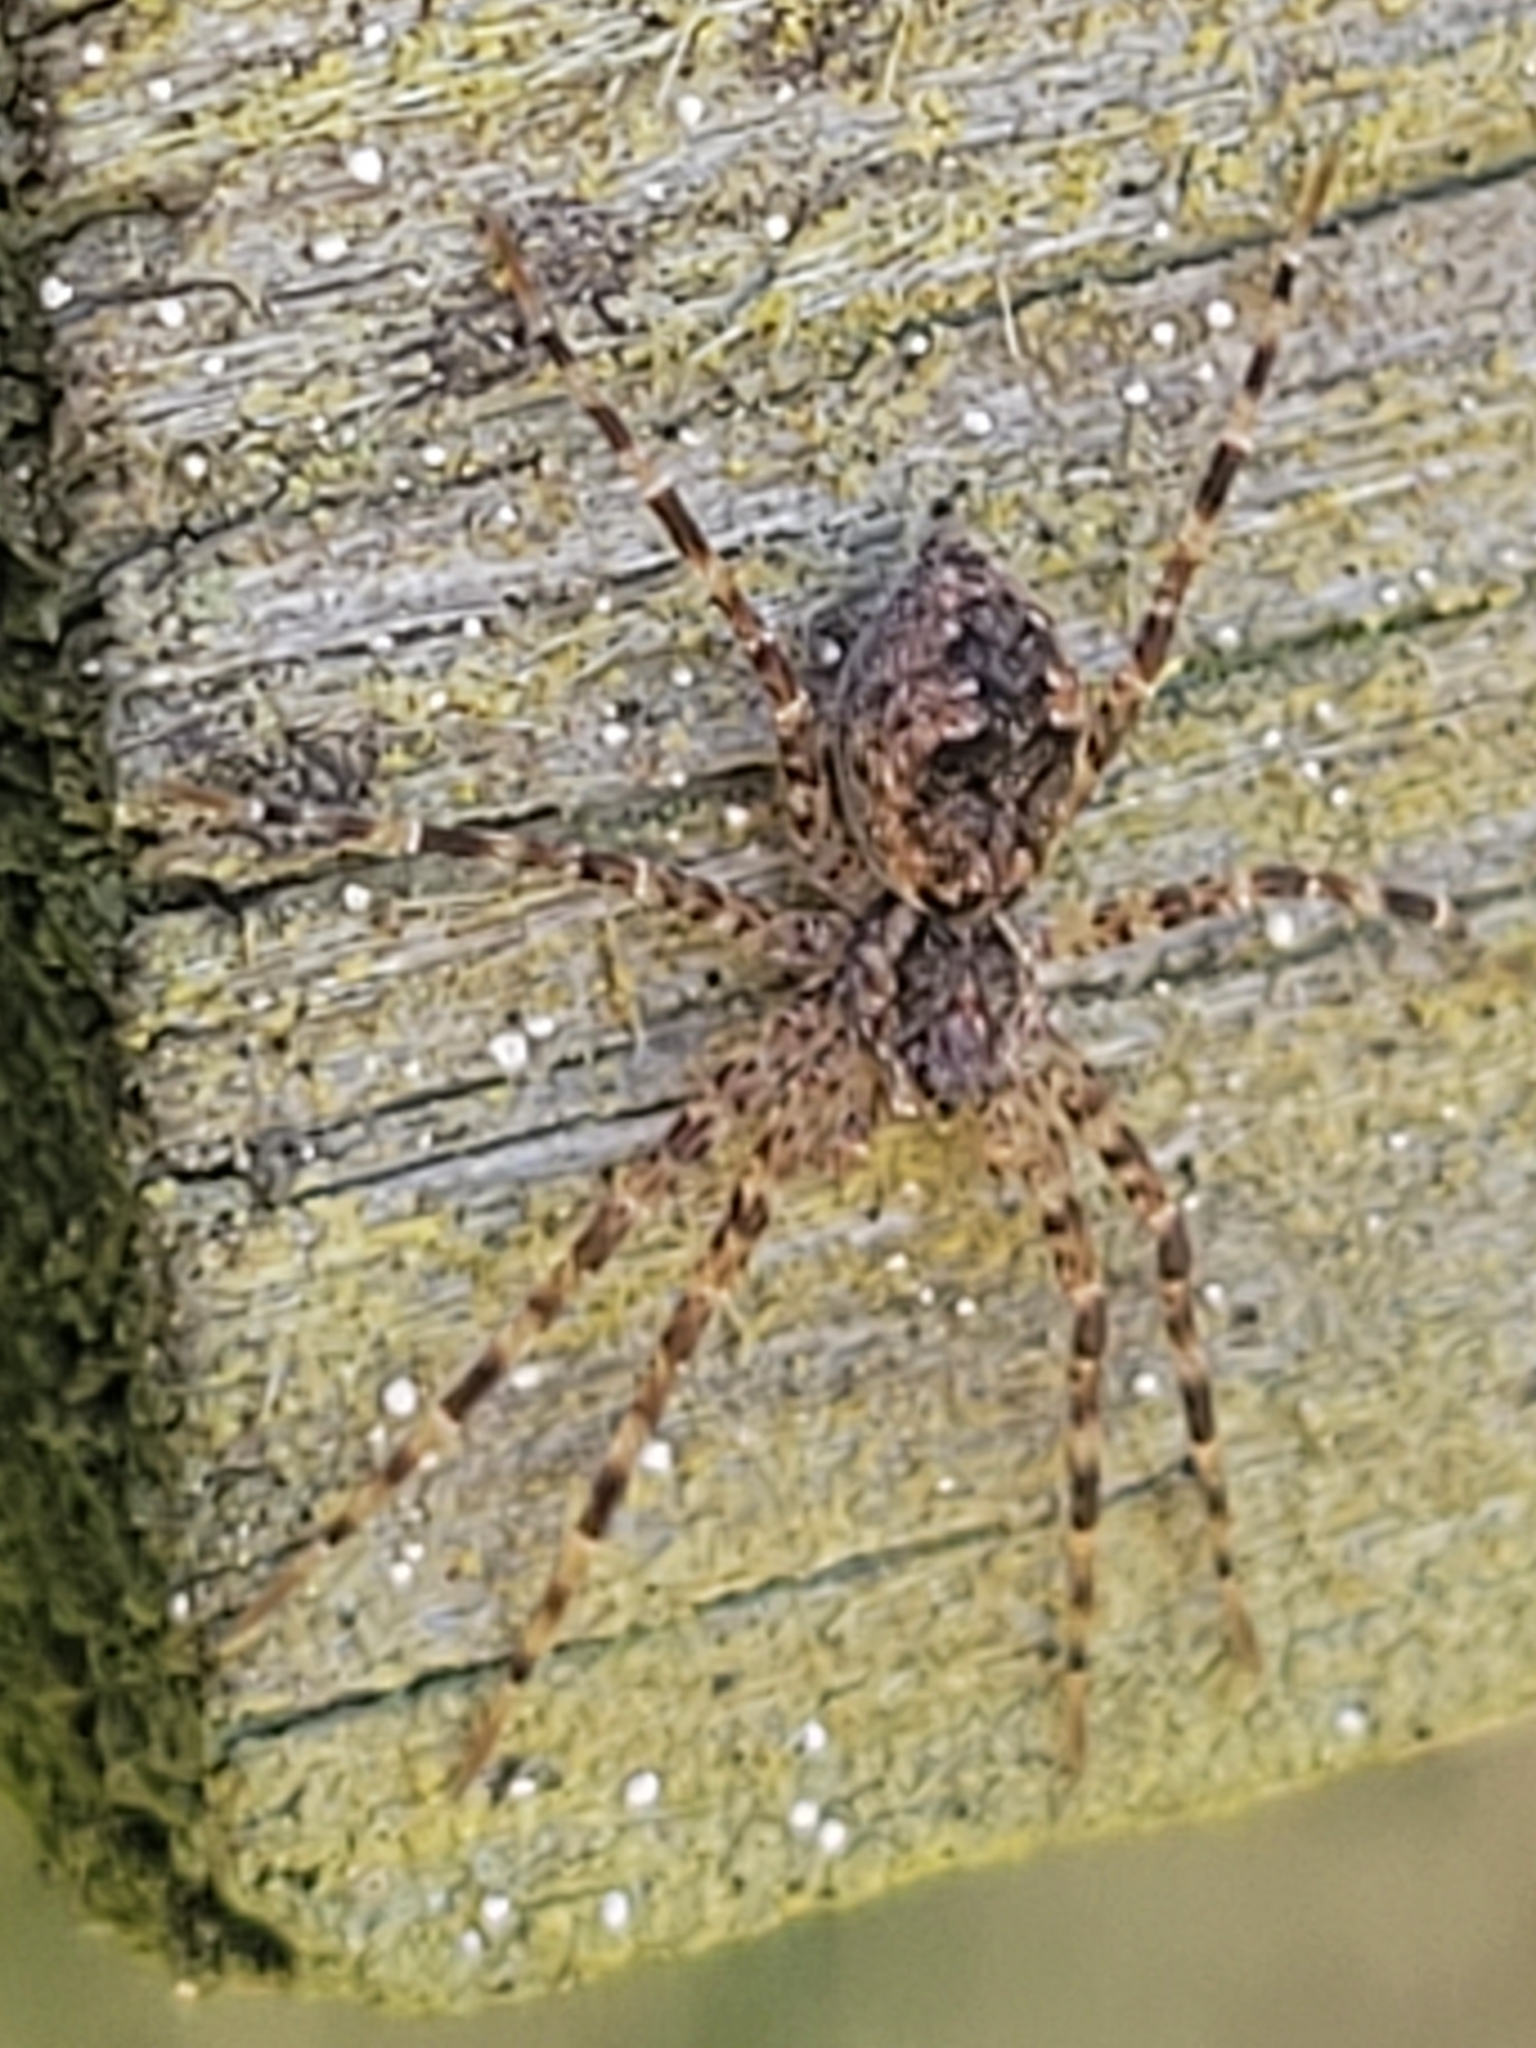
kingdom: Animalia
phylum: Arthropoda
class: Arachnida
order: Araneae
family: Pisauridae
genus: Dolomedes
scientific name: Dolomedes tenebrosus
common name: Dark fishing spider
